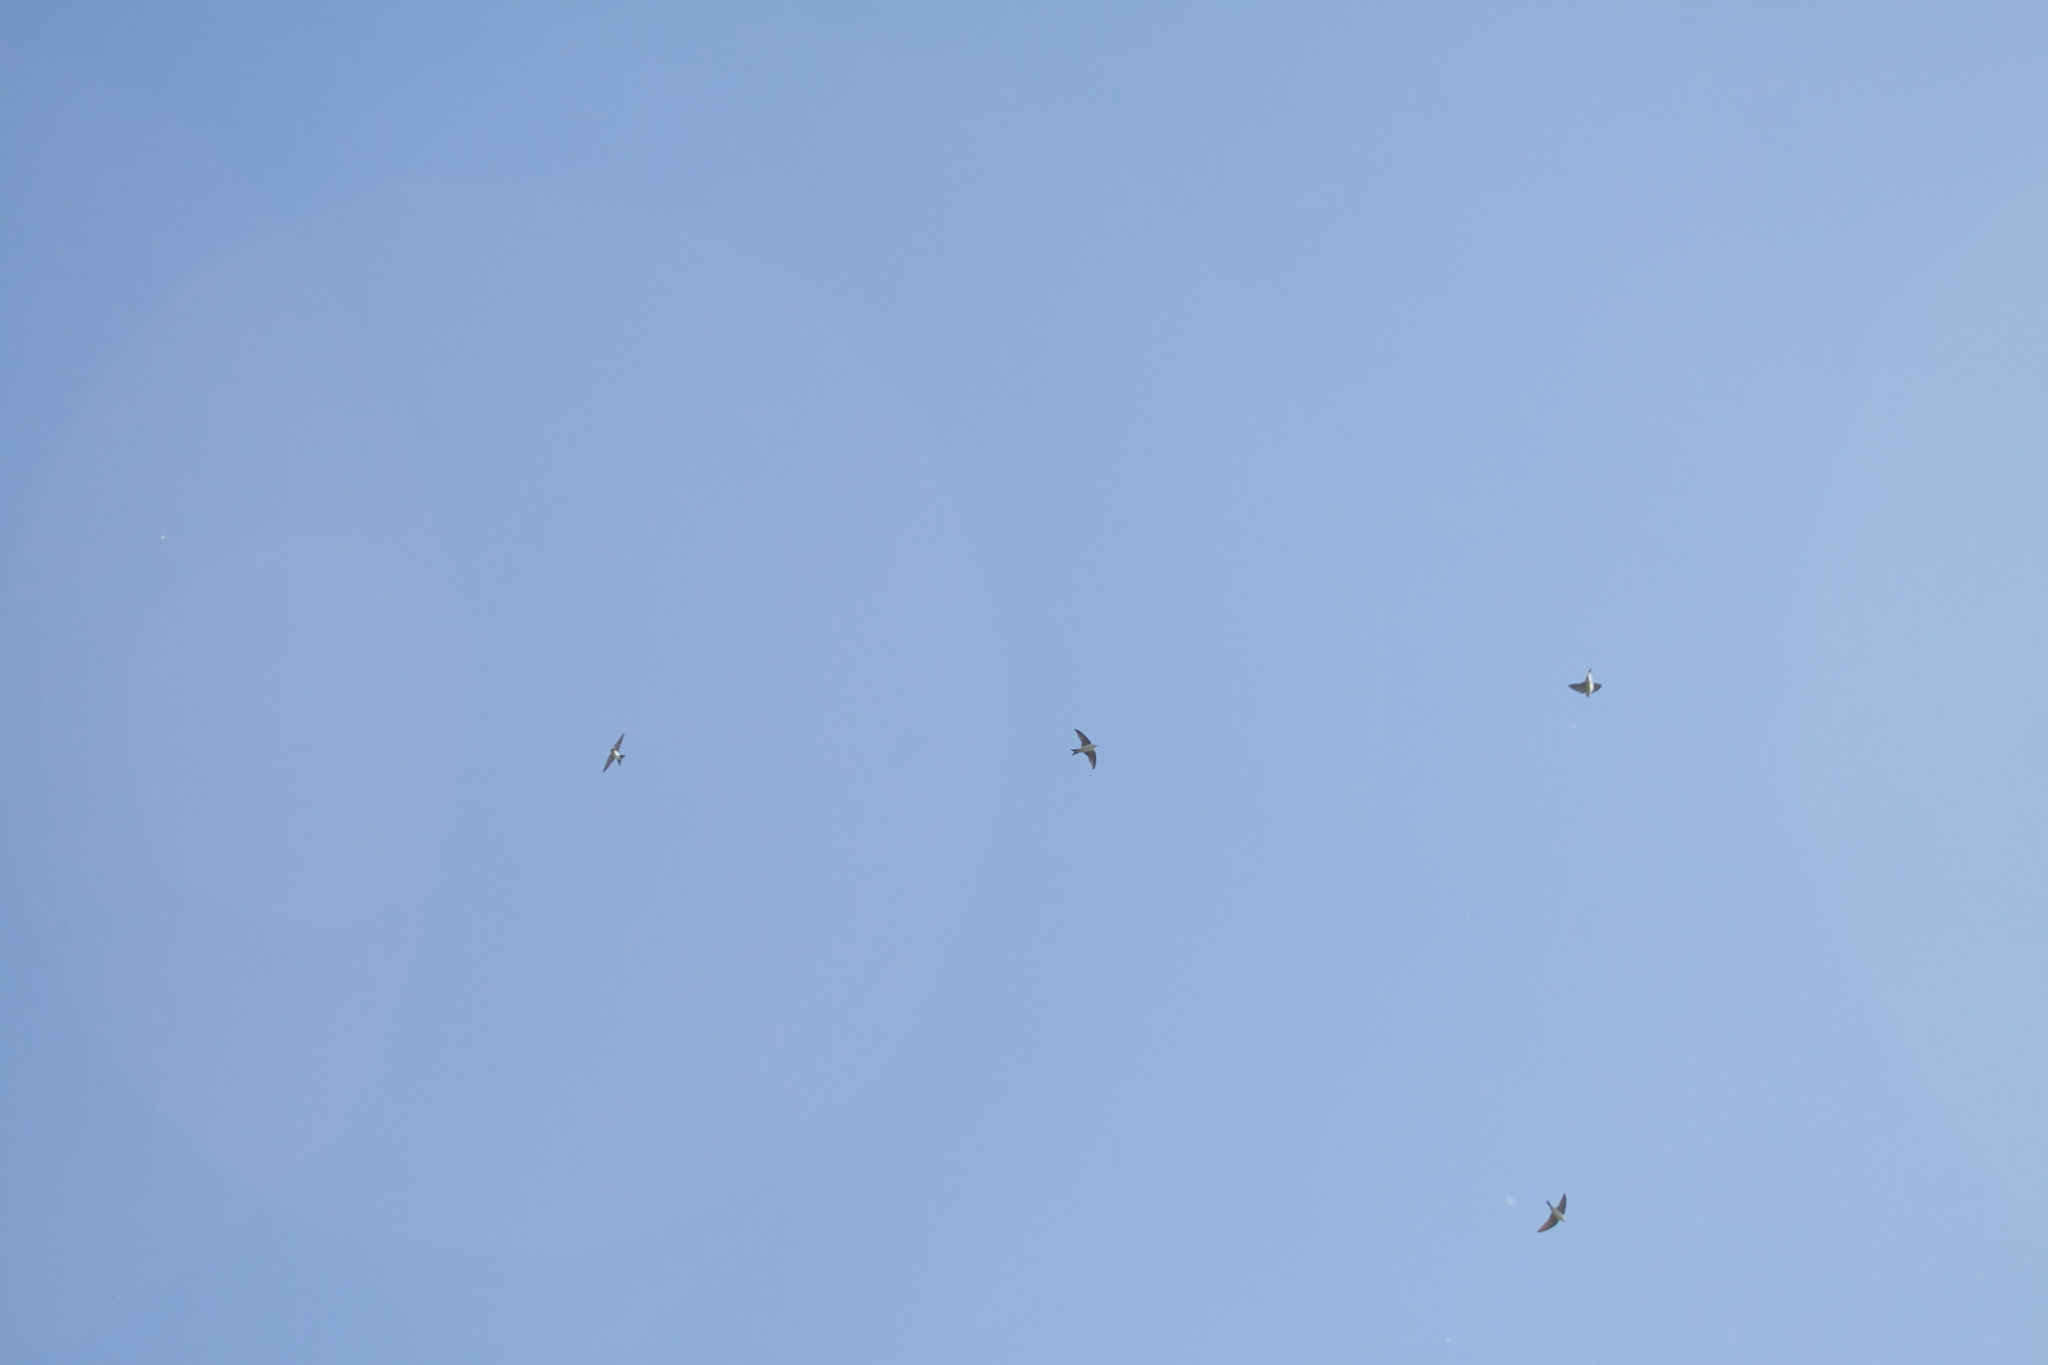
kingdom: Animalia
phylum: Chordata
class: Aves
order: Passeriformes
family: Hirundinidae
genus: Delichon
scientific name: Delichon urbicum
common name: Common house martin
